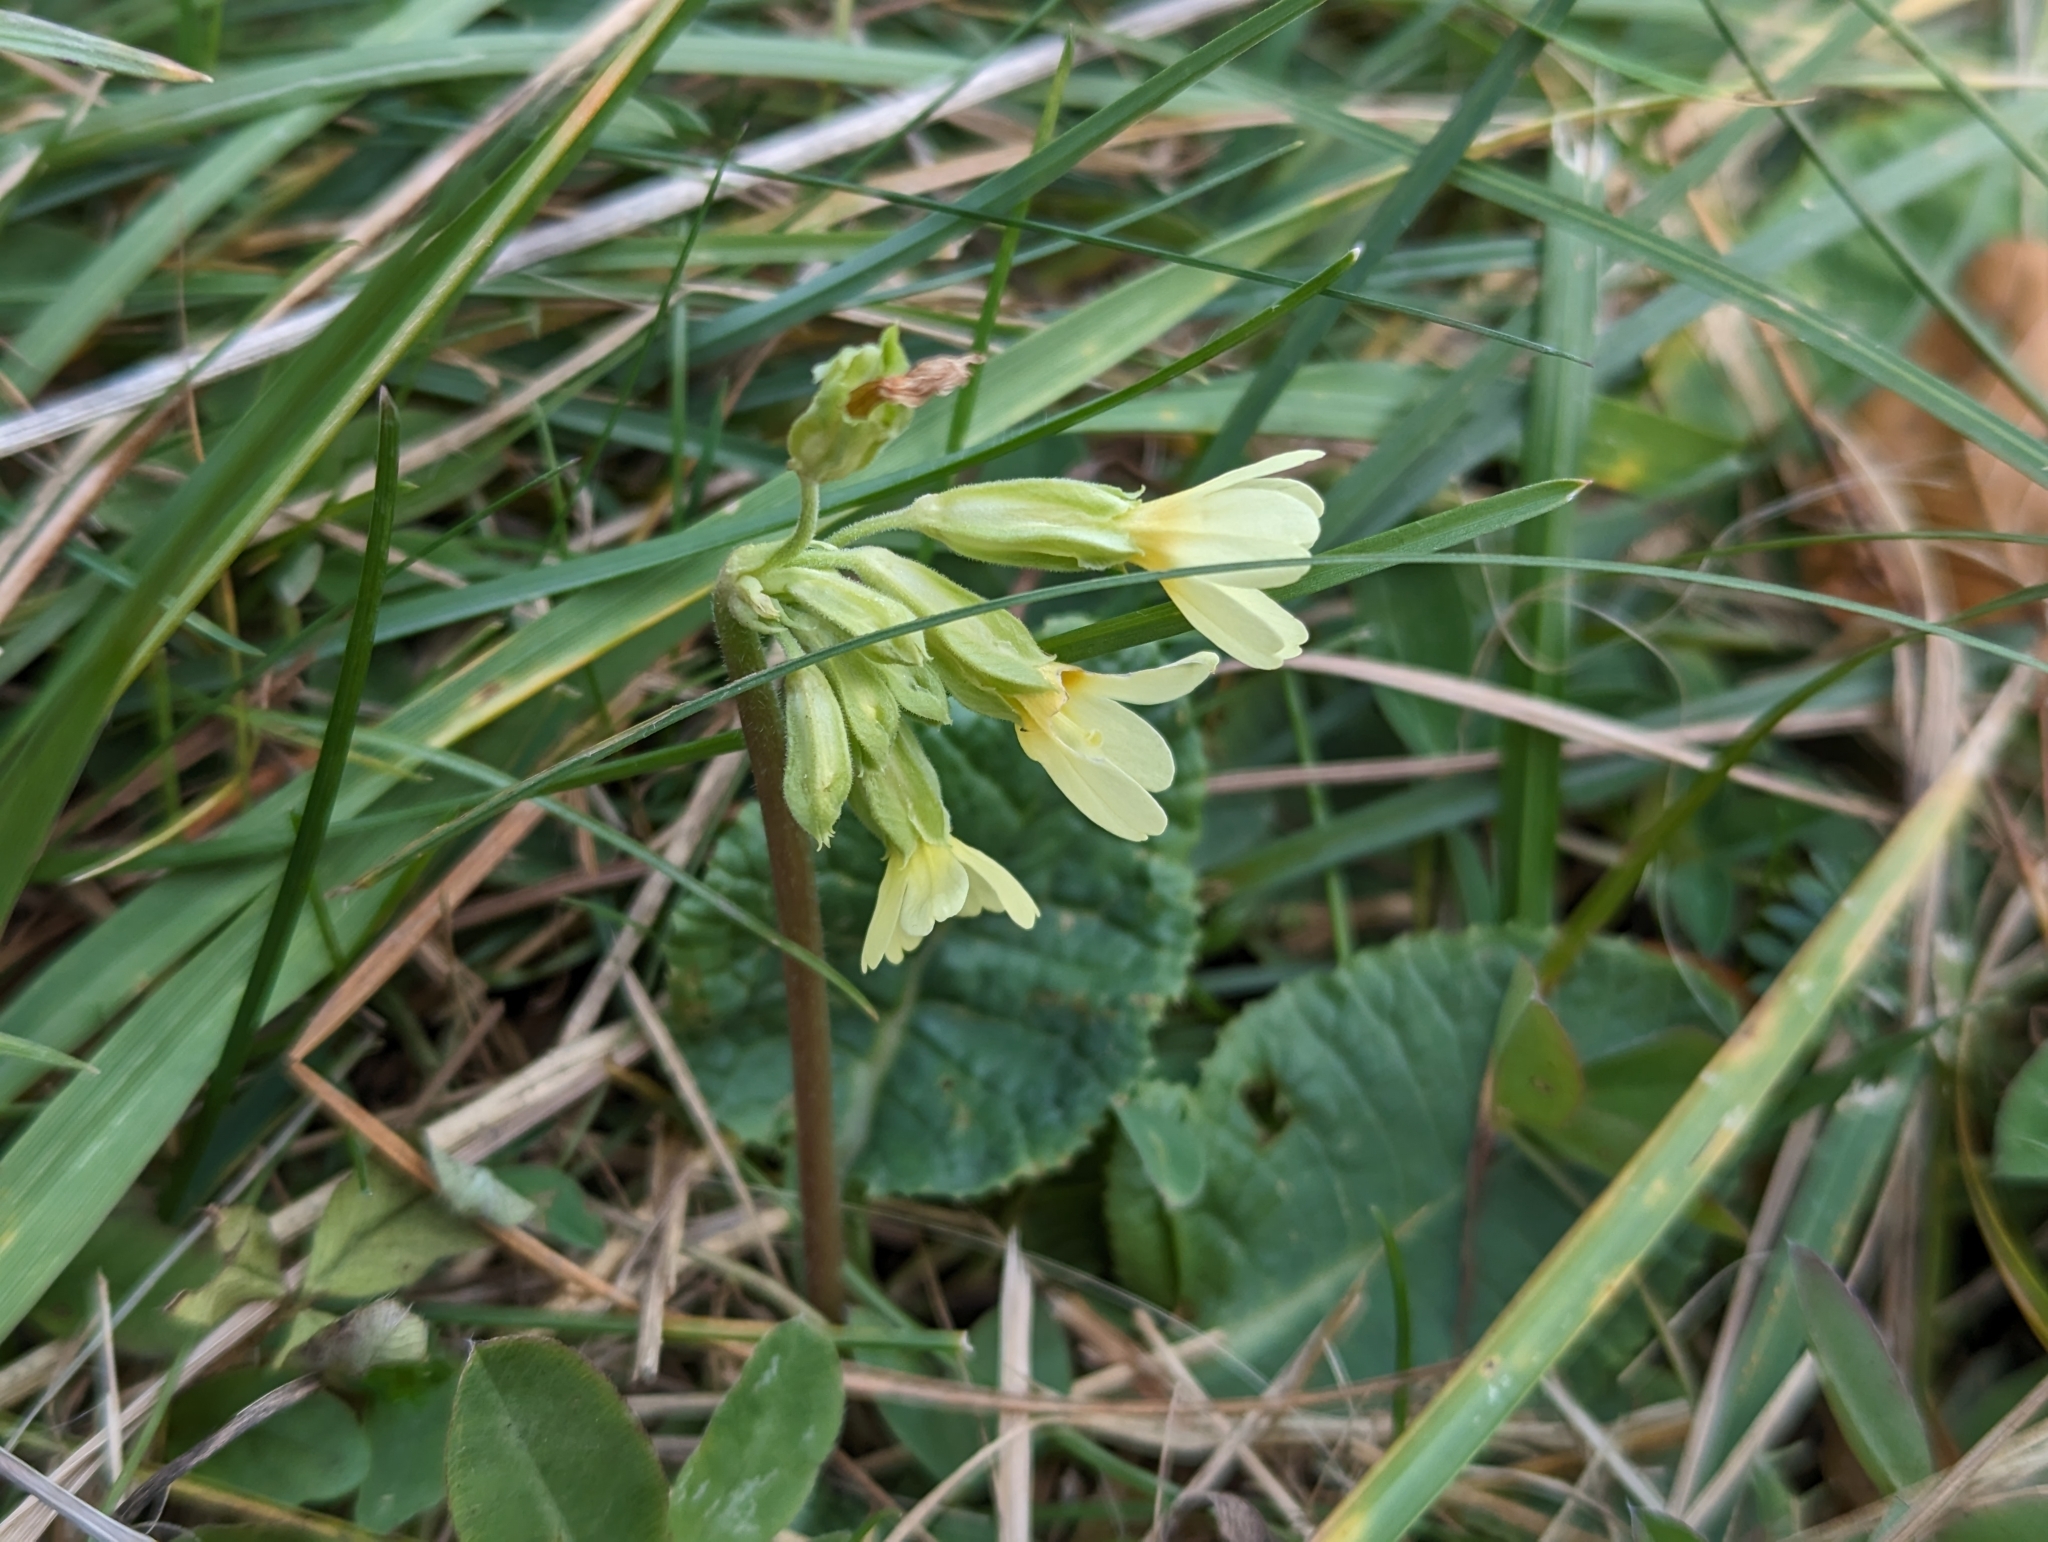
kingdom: Plantae
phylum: Tracheophyta
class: Magnoliopsida
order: Ericales
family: Primulaceae
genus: Primula
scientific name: Primula elatior
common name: Oxlip
